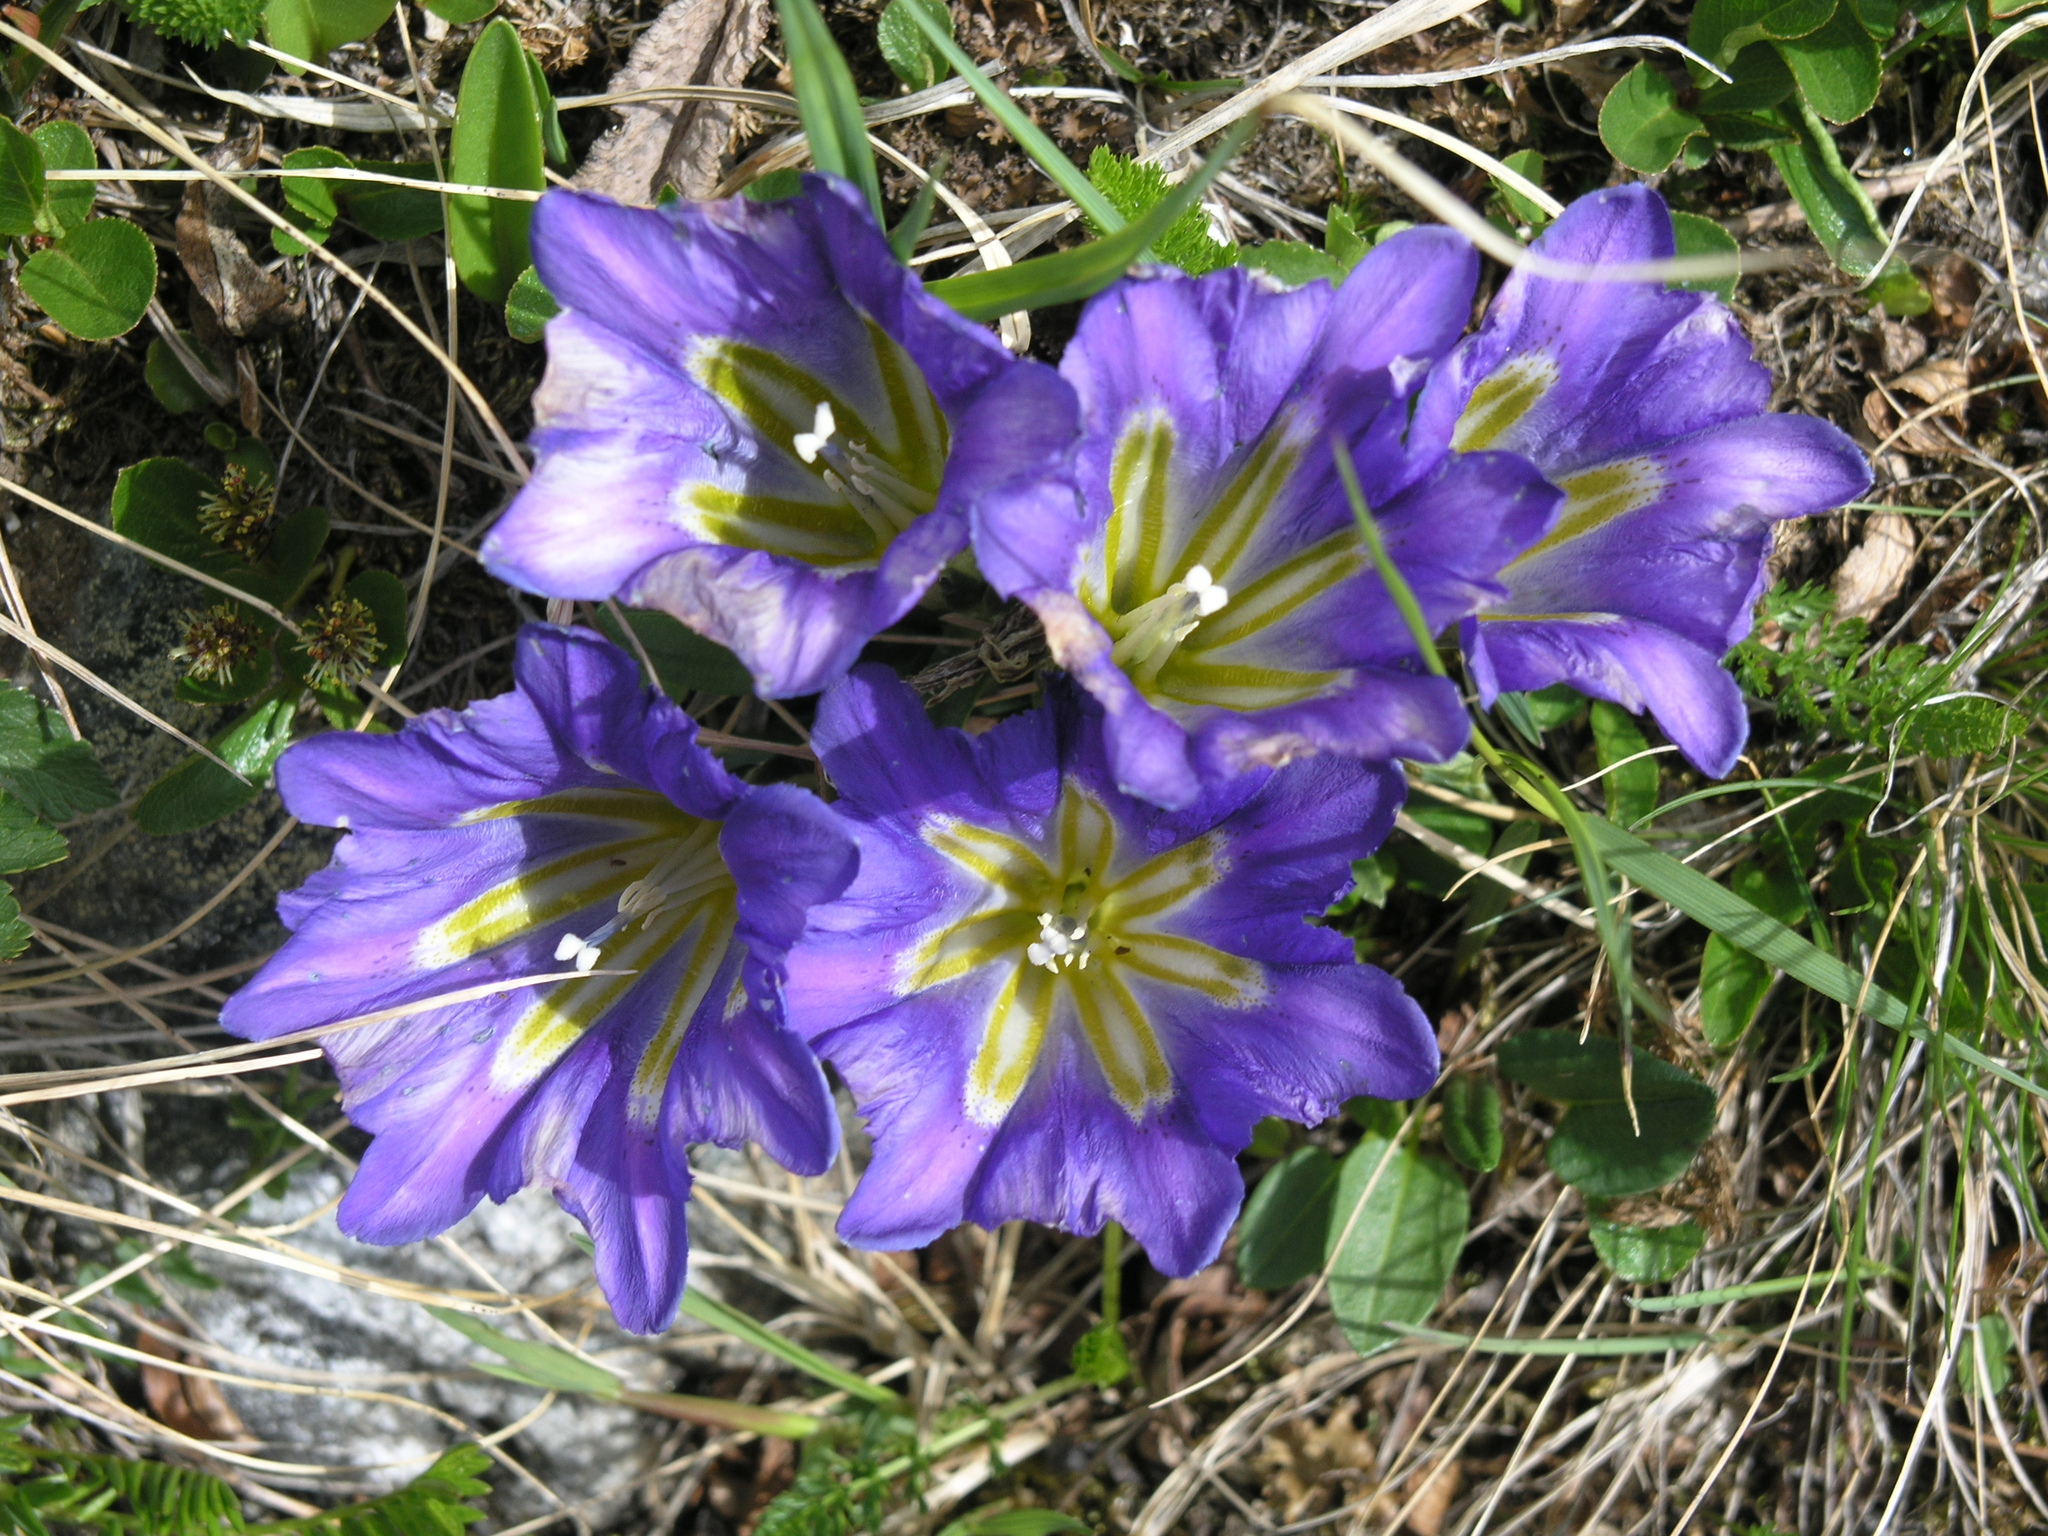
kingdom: Plantae
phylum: Tracheophyta
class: Magnoliopsida
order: Gentianales
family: Gentianaceae
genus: Gentiana
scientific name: Gentiana grandiflora
